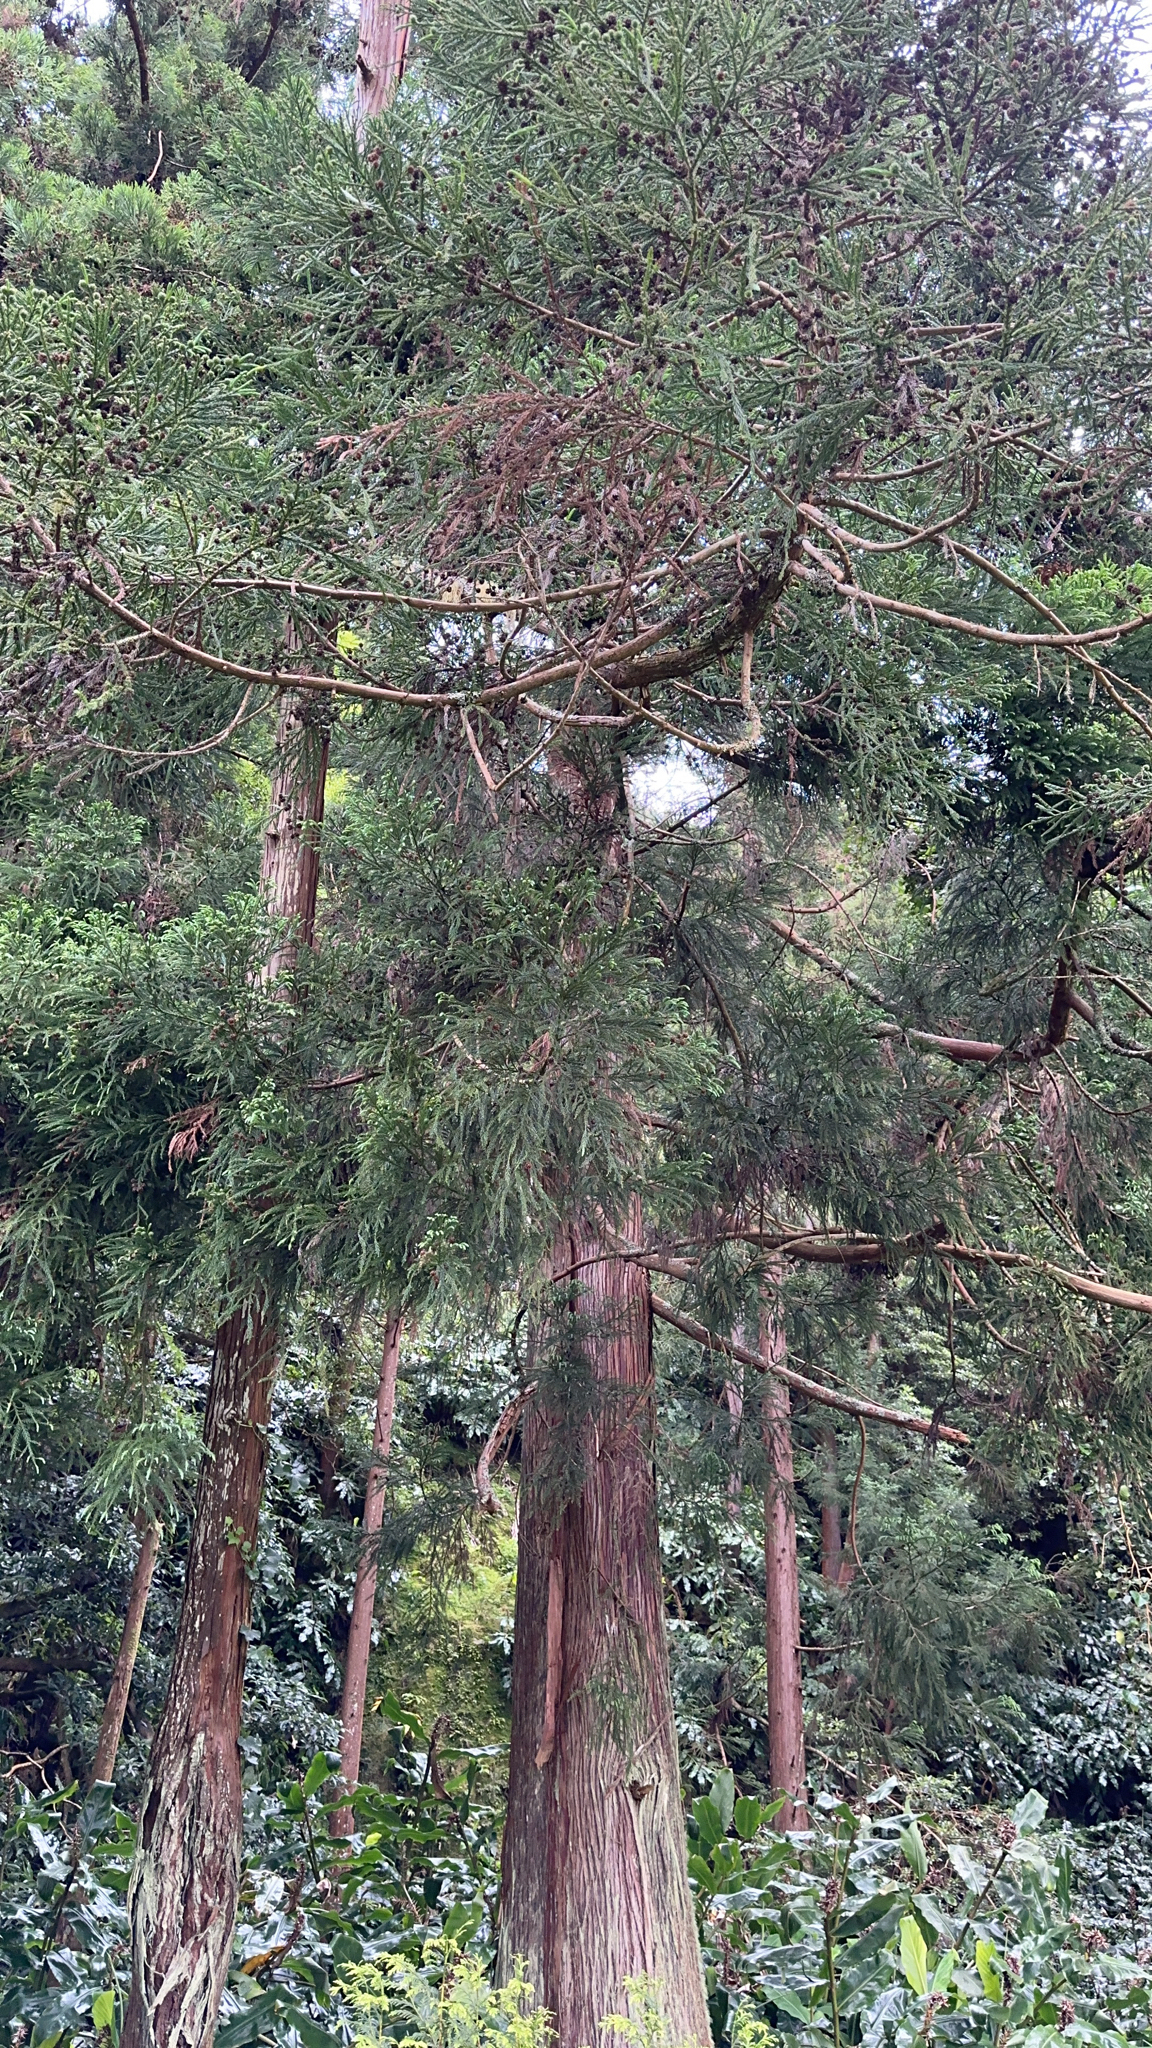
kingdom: Plantae
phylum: Tracheophyta
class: Pinopsida
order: Pinales
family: Cupressaceae
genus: Cryptomeria
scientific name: Cryptomeria japonica
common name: Japanese cedar
